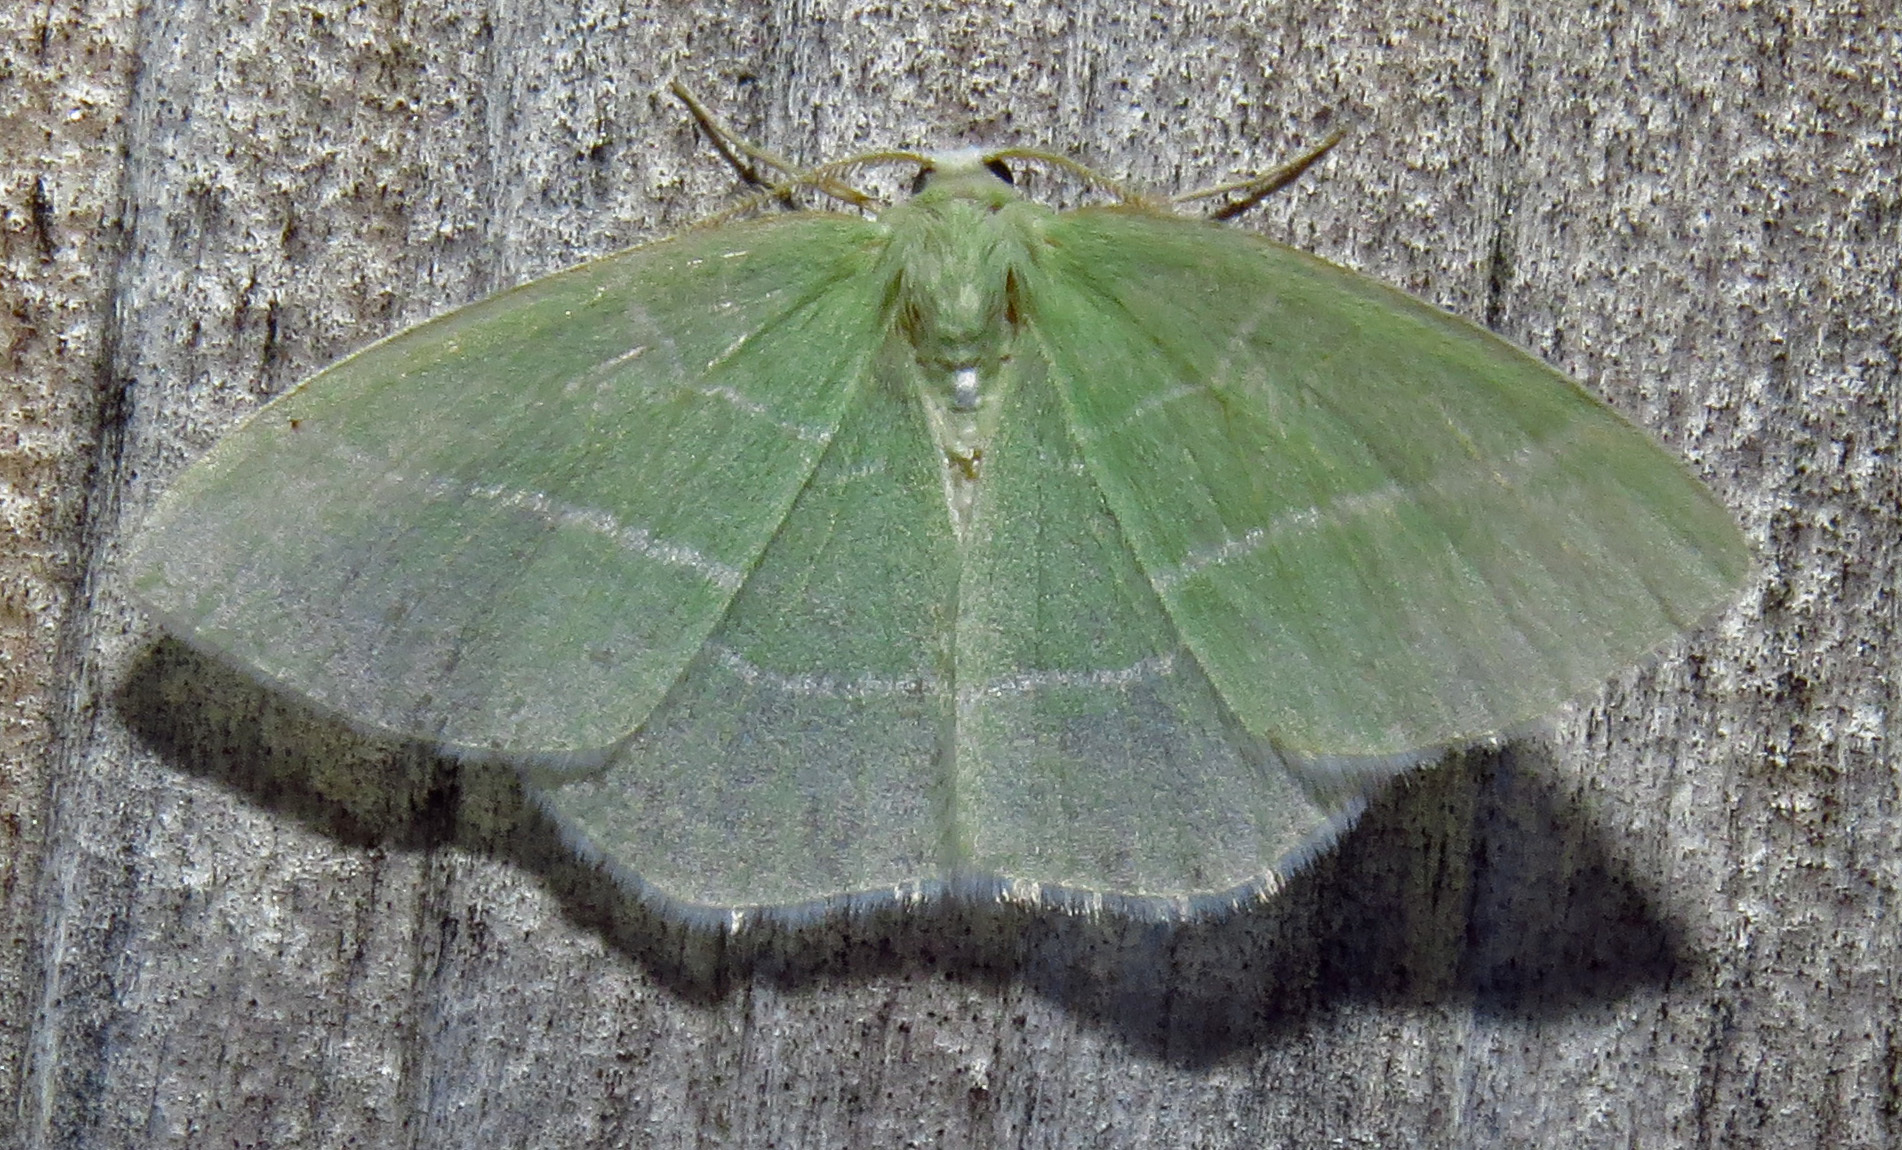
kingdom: Animalia
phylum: Arthropoda
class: Insecta
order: Lepidoptera
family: Geometridae
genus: Nemoria
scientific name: Nemoria mimosaria
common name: White-fringed emerald
